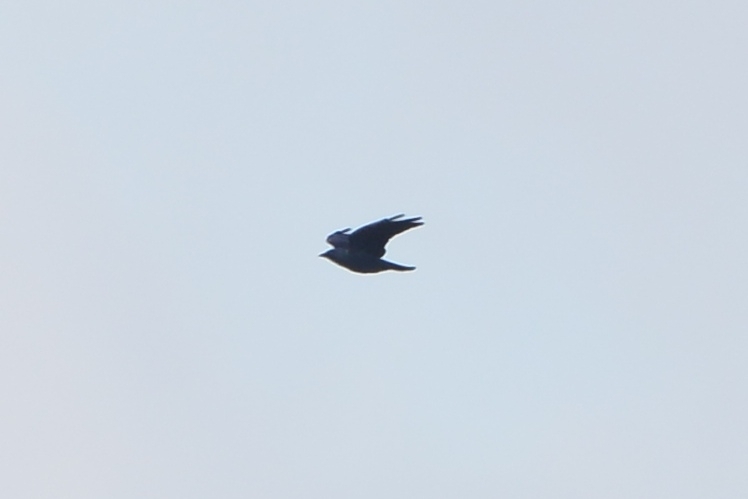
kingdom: Animalia
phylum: Chordata
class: Aves
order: Passeriformes
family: Corvidae
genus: Coloeus
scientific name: Coloeus monedula
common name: Western jackdaw
